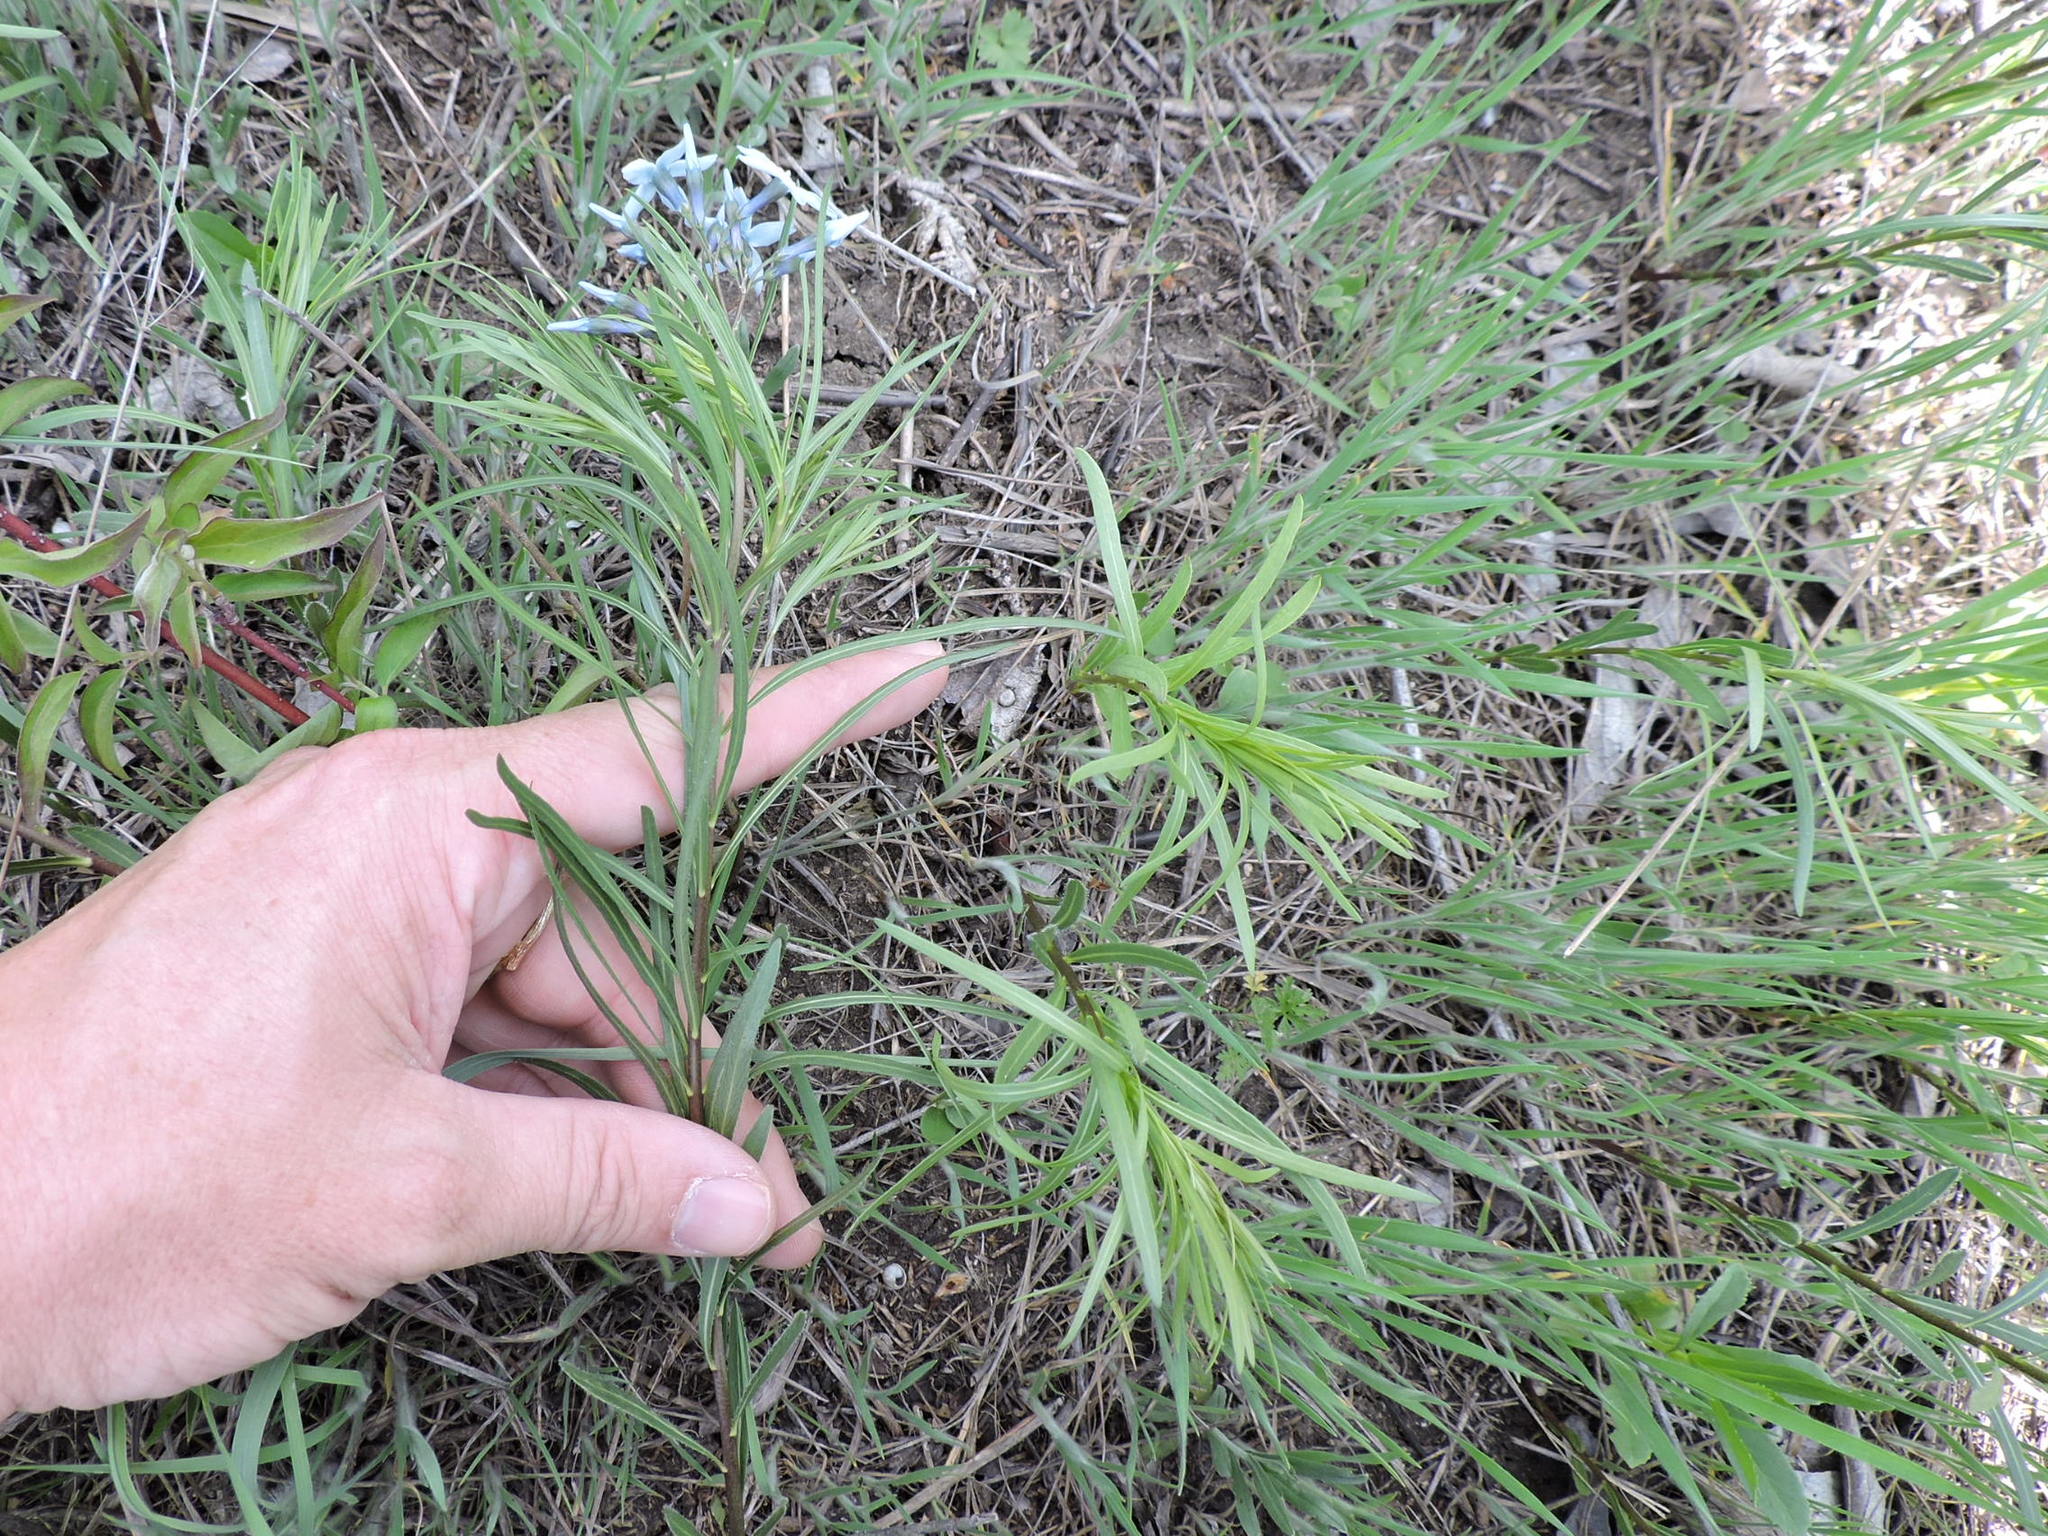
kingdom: Plantae
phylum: Tracheophyta
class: Magnoliopsida
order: Gentianales
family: Apocynaceae
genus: Amsonia
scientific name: Amsonia ciliata
